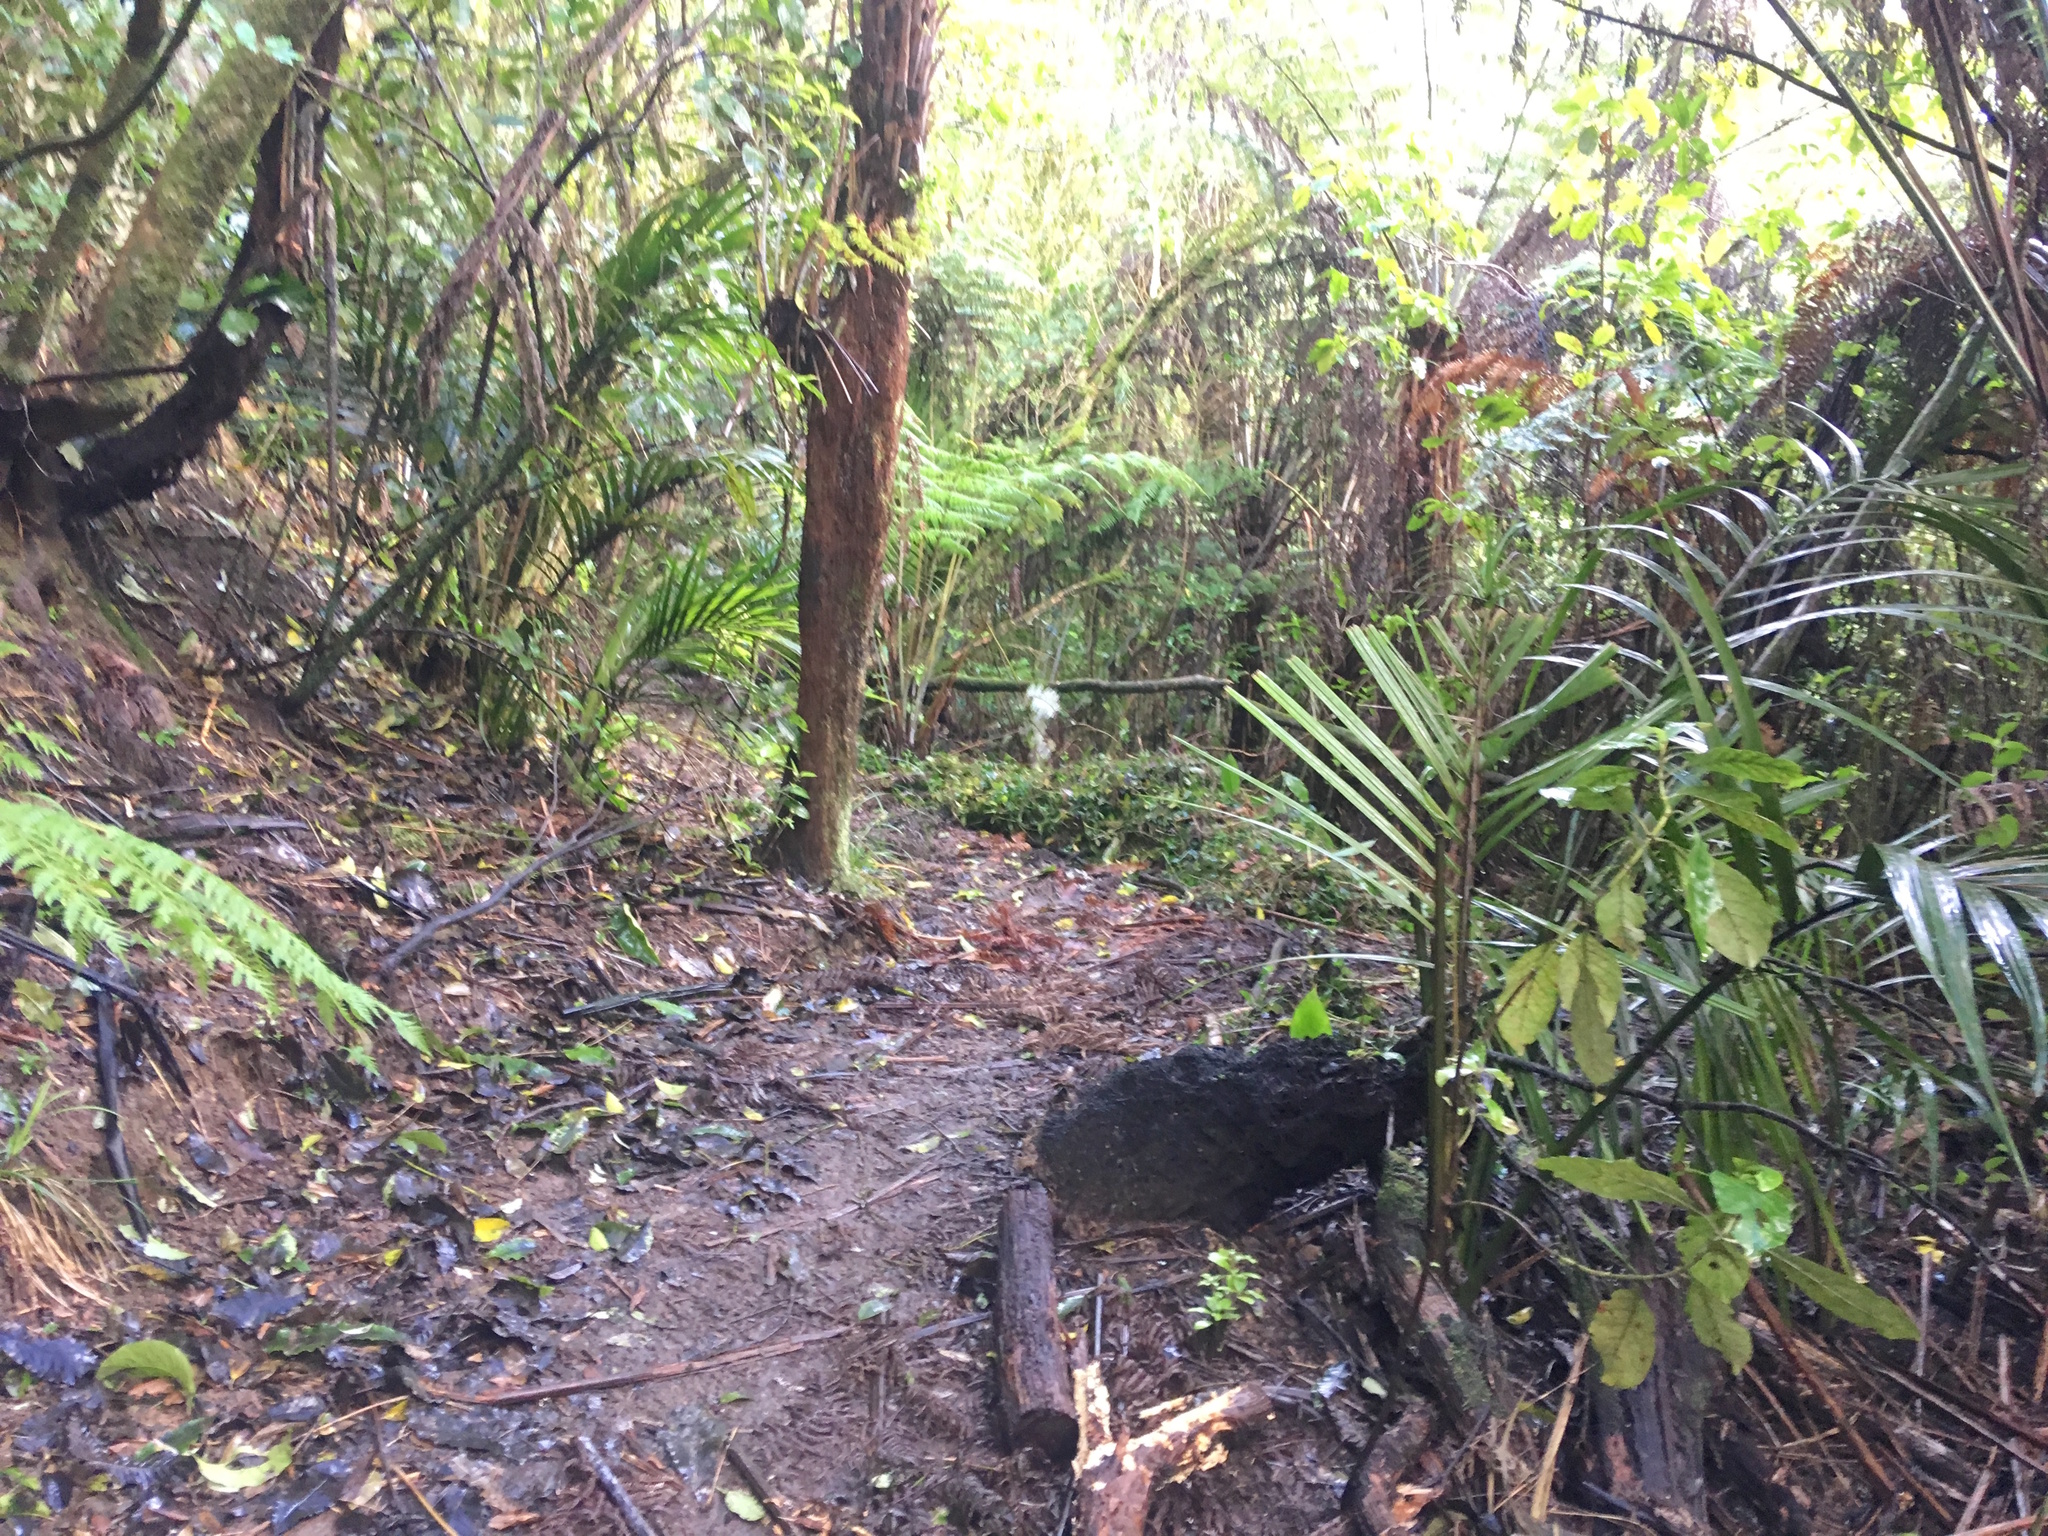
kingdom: Plantae
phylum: Tracheophyta
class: Liliopsida
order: Arecales
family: Arecaceae
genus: Rhopalostylis
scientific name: Rhopalostylis sapida
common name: Feather-duster palm
